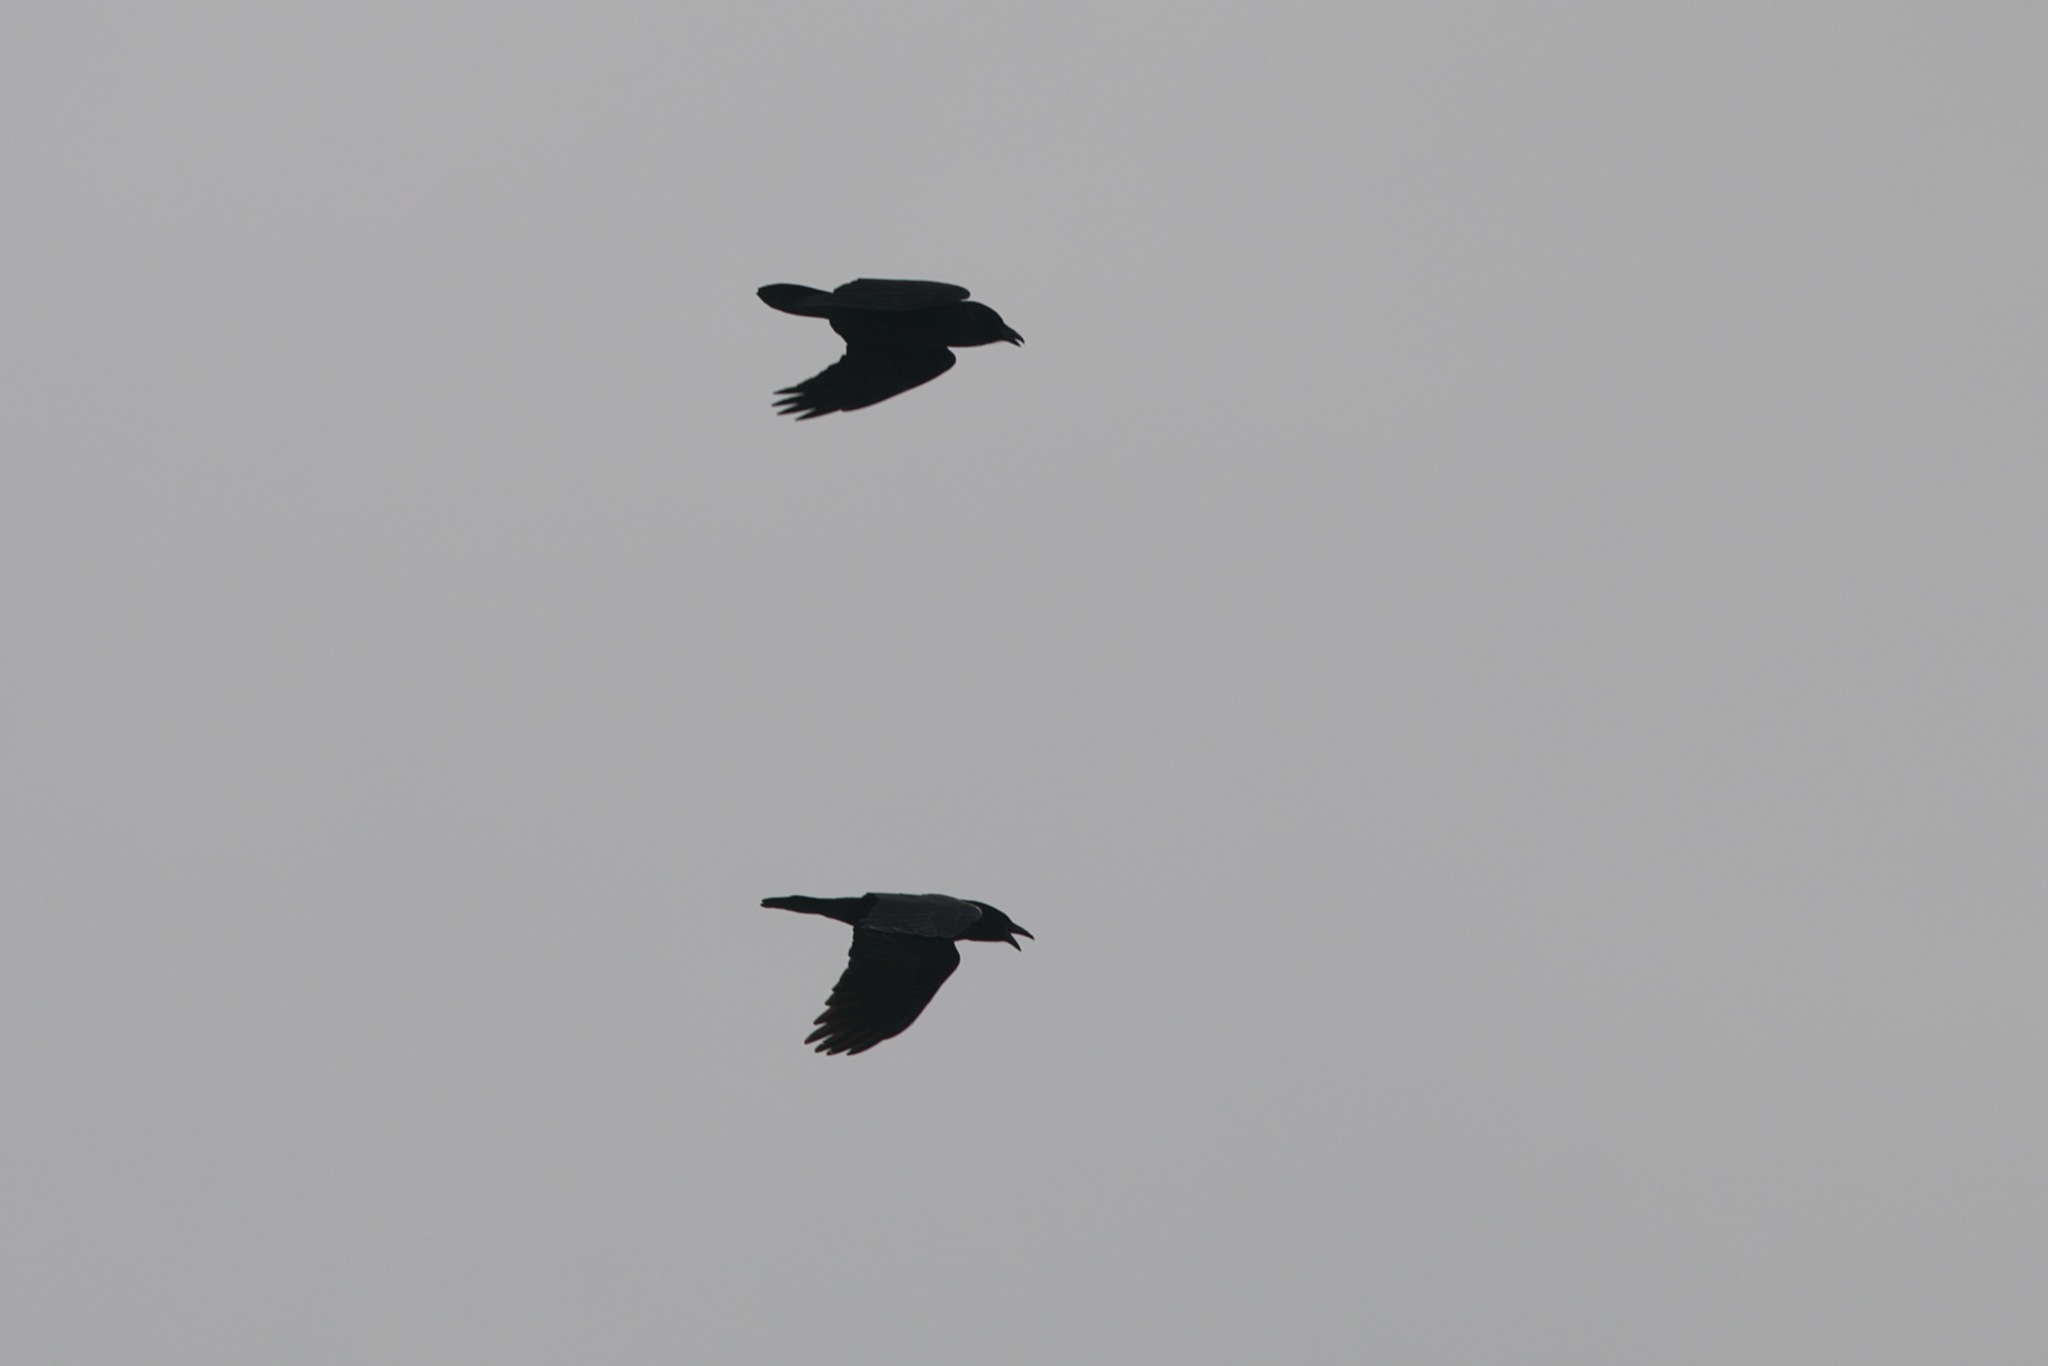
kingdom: Animalia
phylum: Chordata
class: Aves
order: Passeriformes
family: Corvidae
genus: Corvus
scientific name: Corvus corax
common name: Common raven
